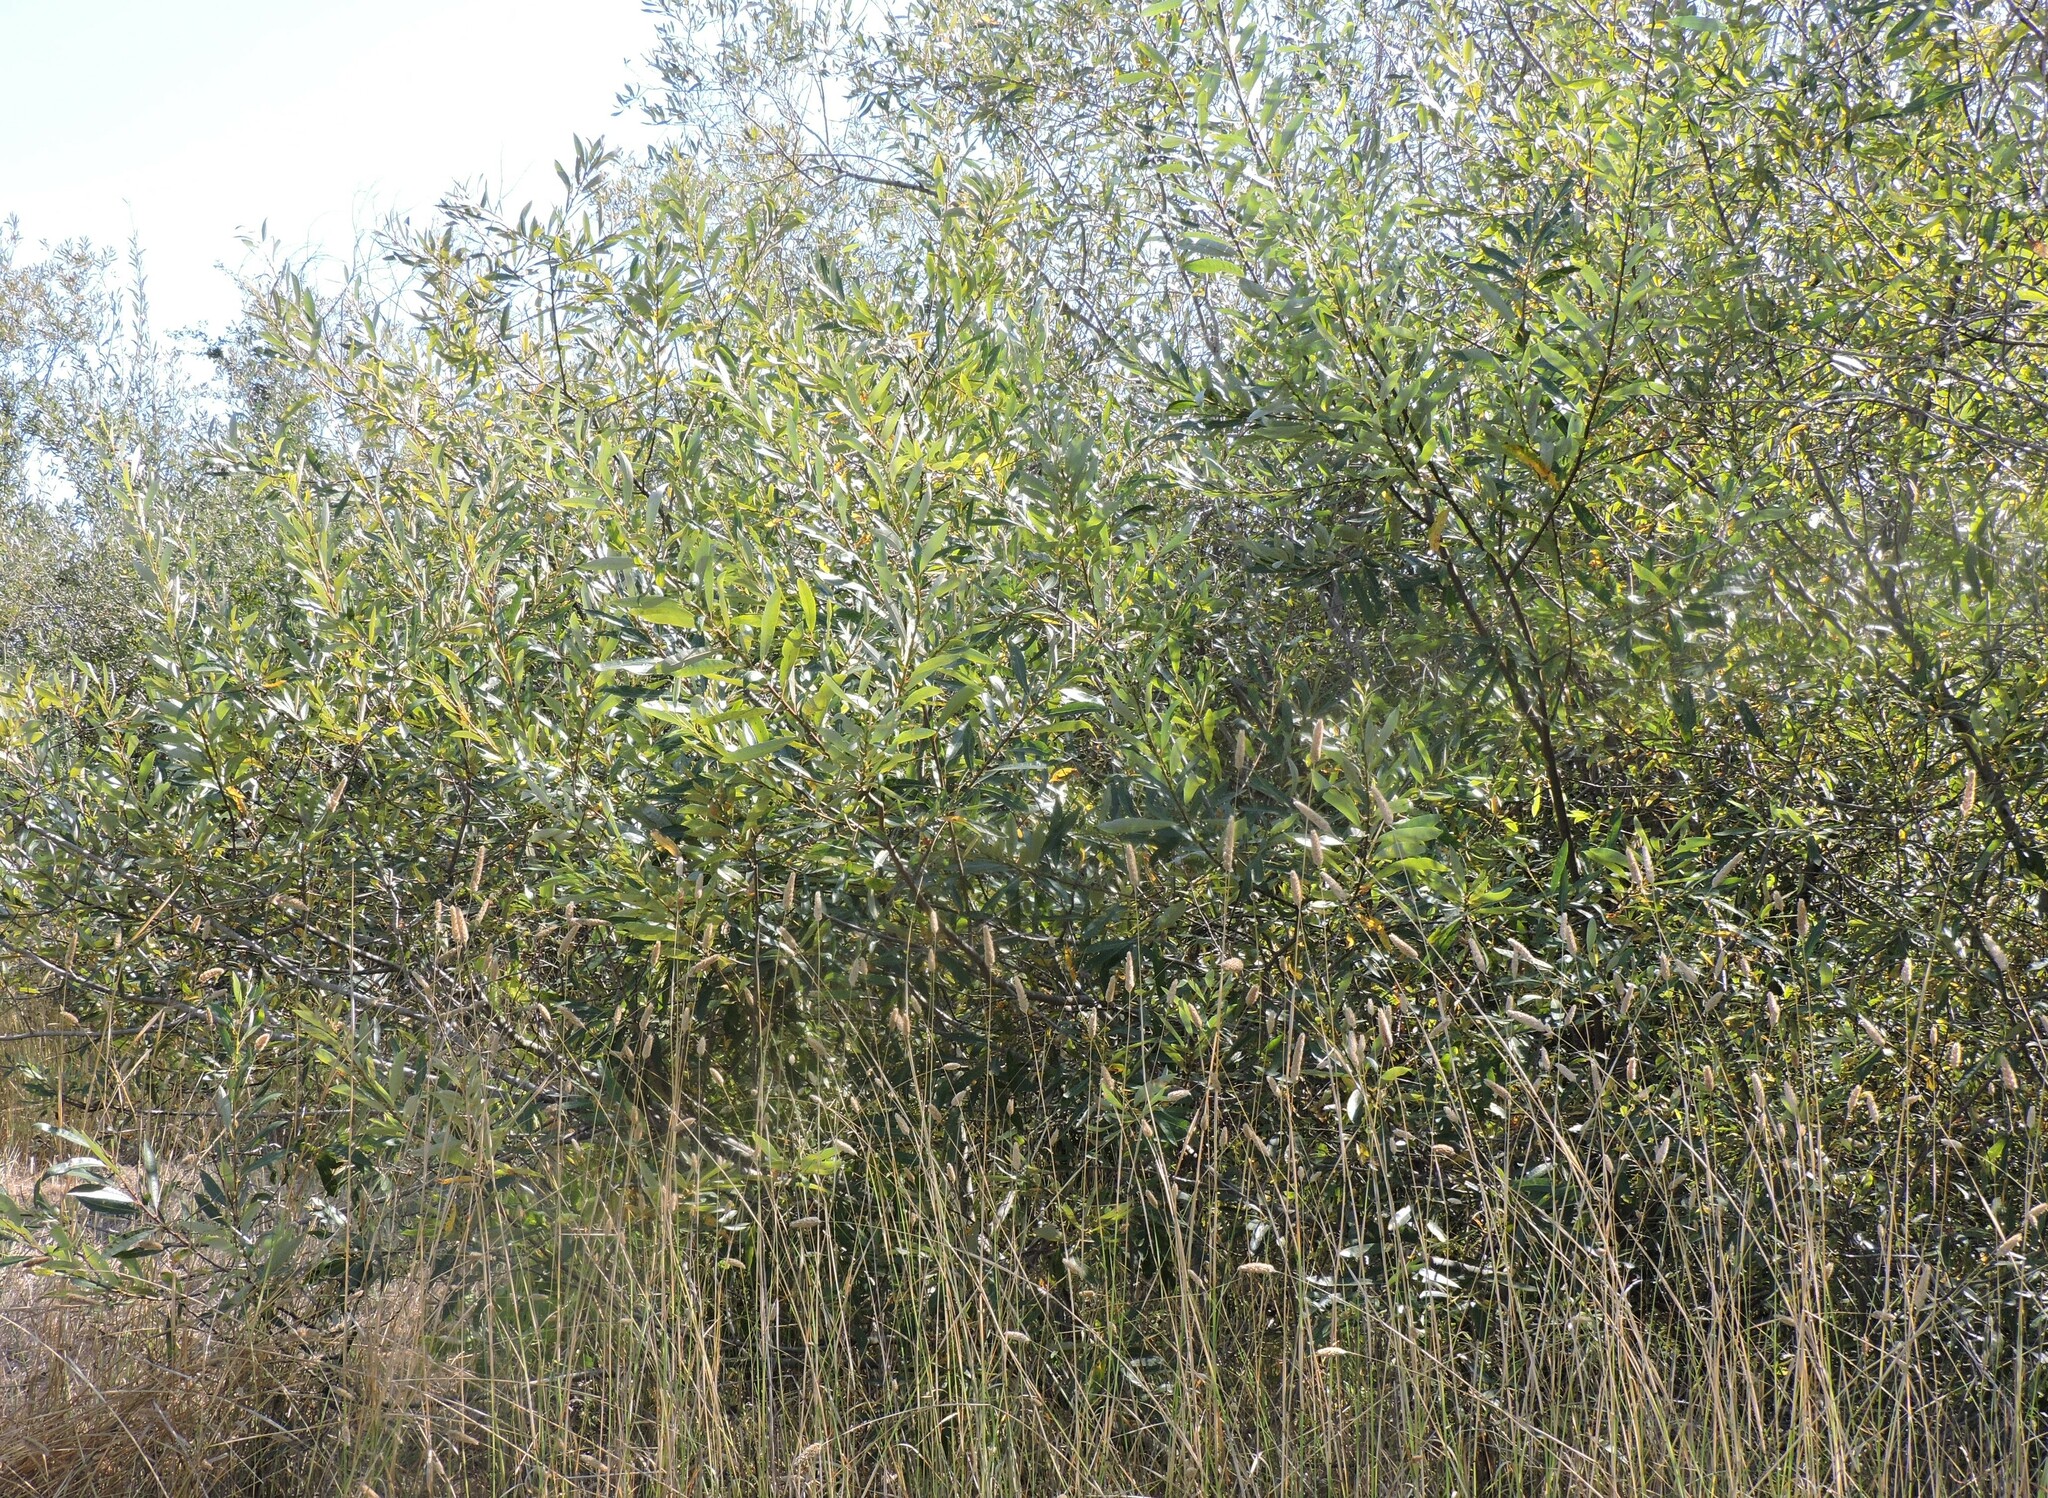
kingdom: Plantae
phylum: Tracheophyta
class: Magnoliopsida
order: Malpighiales
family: Salicaceae
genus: Salix
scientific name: Salix lasiolepis
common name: Arroyo willow
